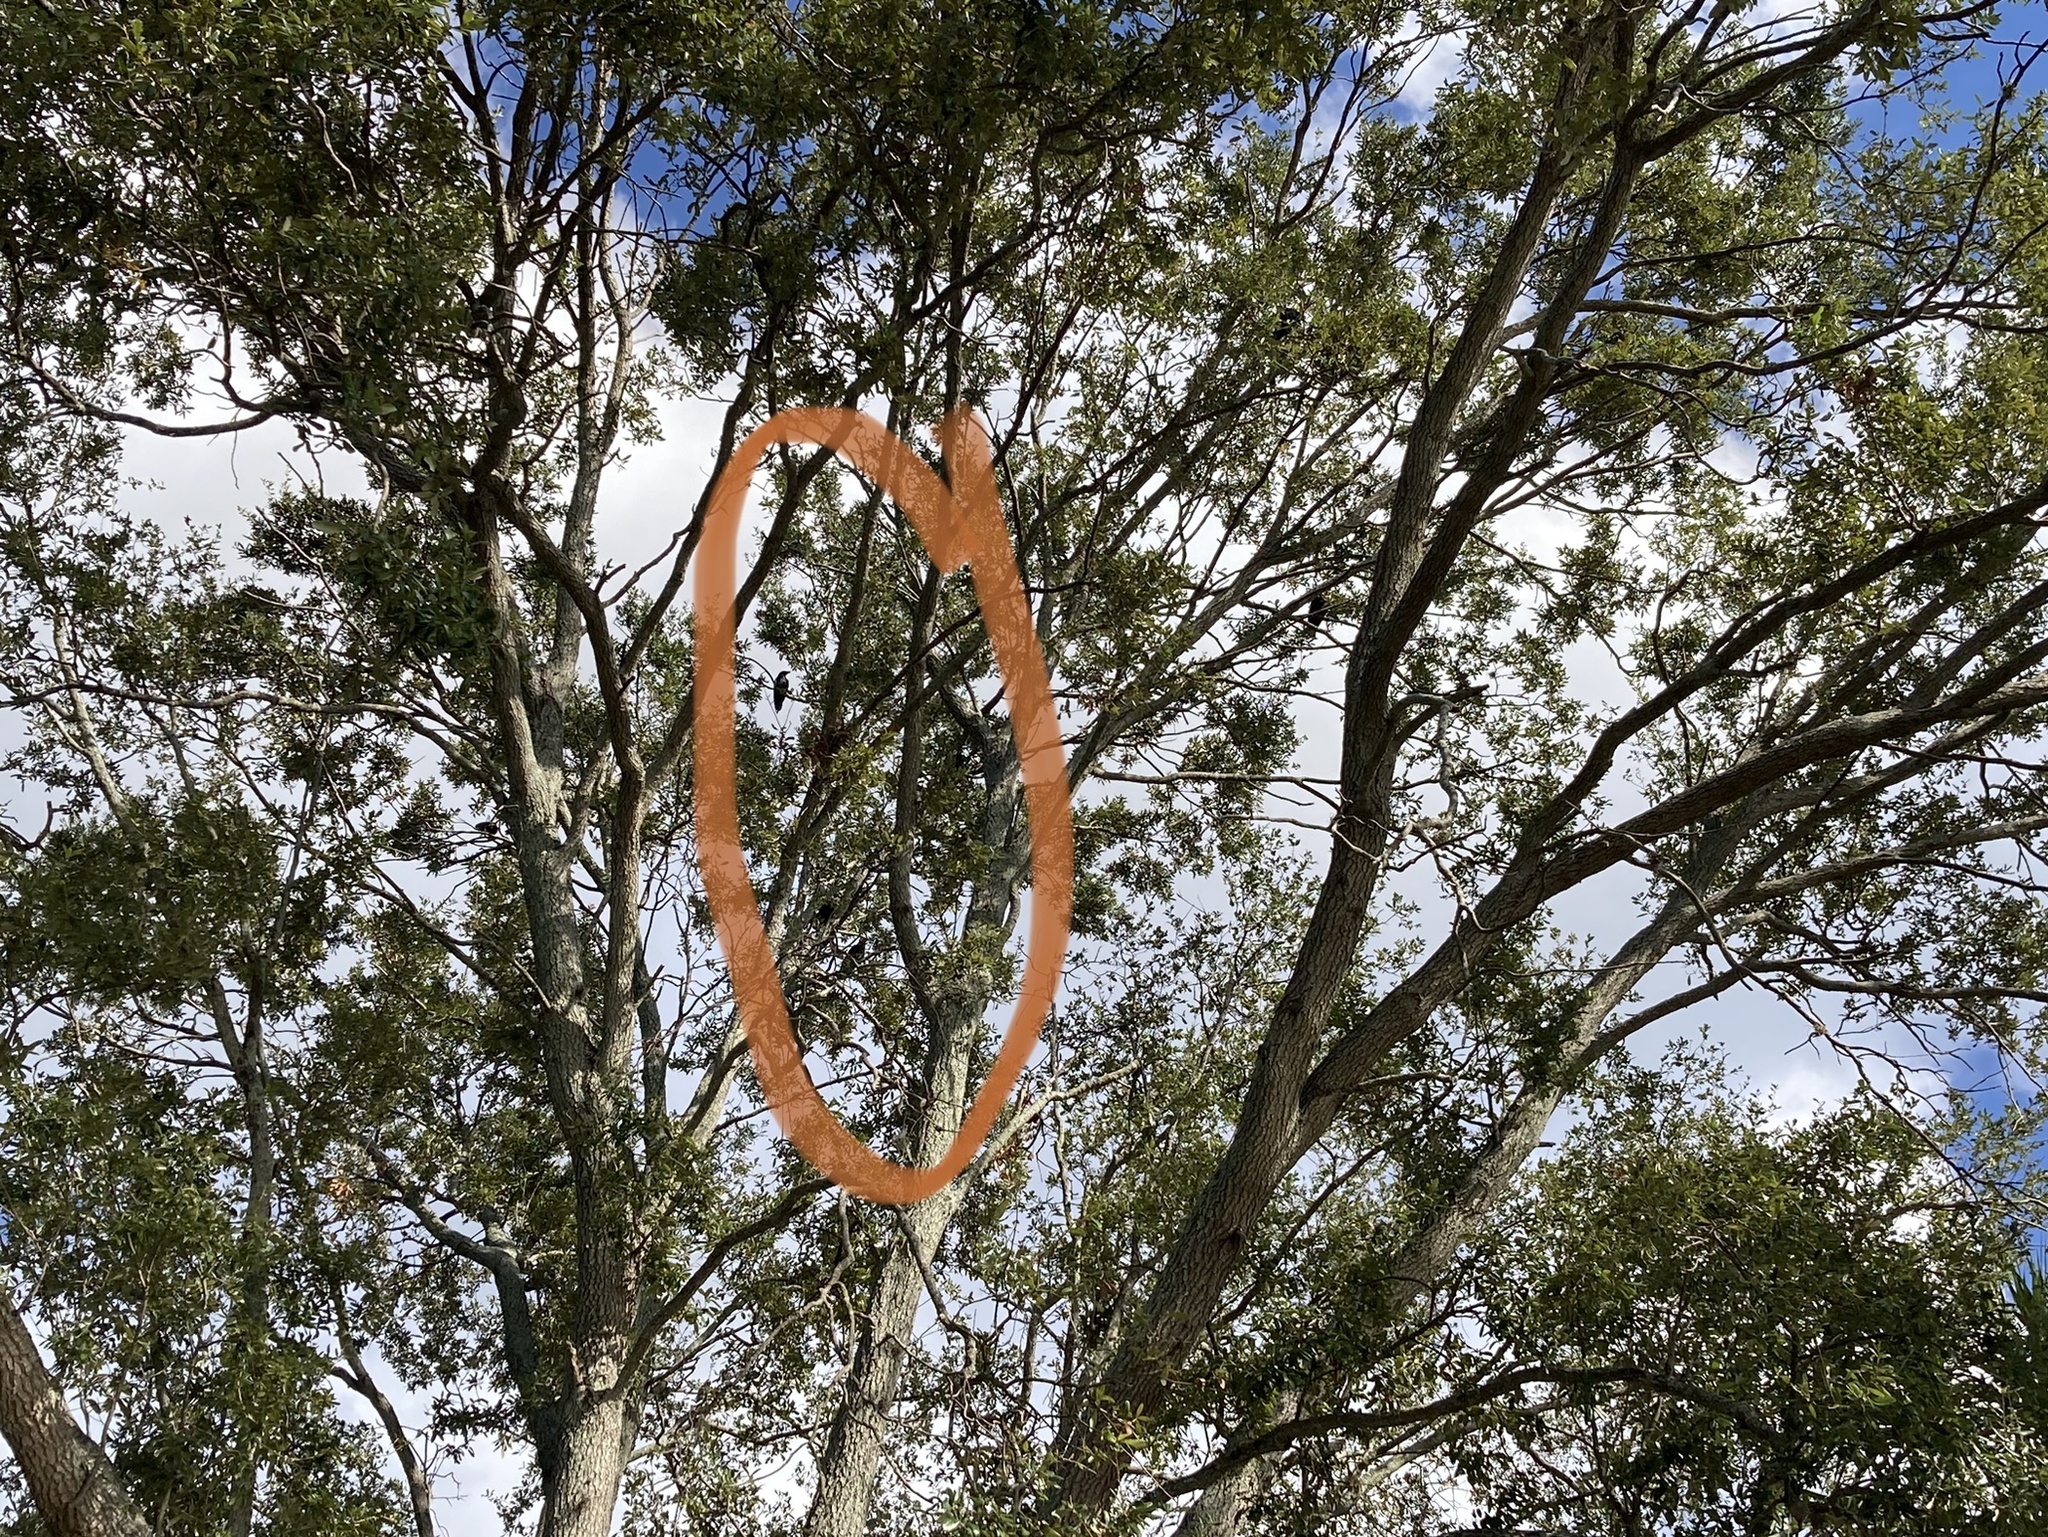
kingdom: Animalia
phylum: Chordata
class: Aves
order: Passeriformes
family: Corvidae
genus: Corvus
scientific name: Corvus
